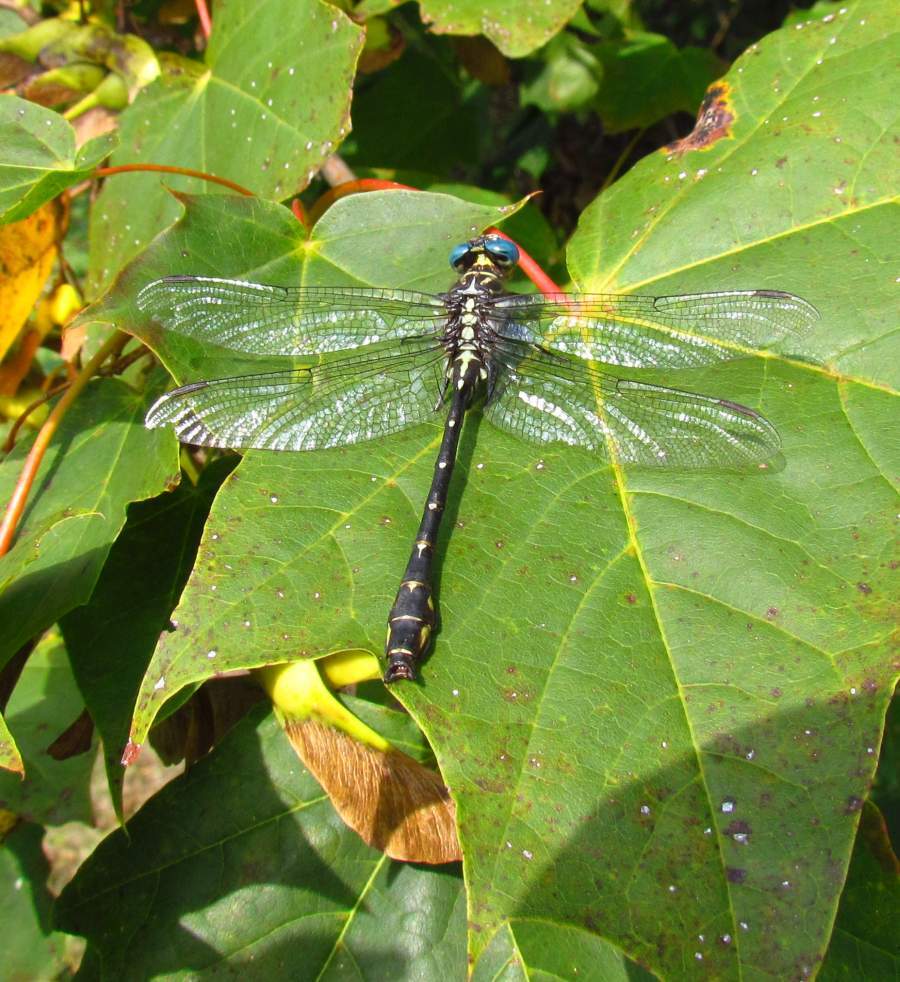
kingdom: Animalia
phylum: Arthropoda
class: Insecta
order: Odonata
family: Gomphidae
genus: Stylurus
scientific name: Stylurus notatus
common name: Elusive clubtail
